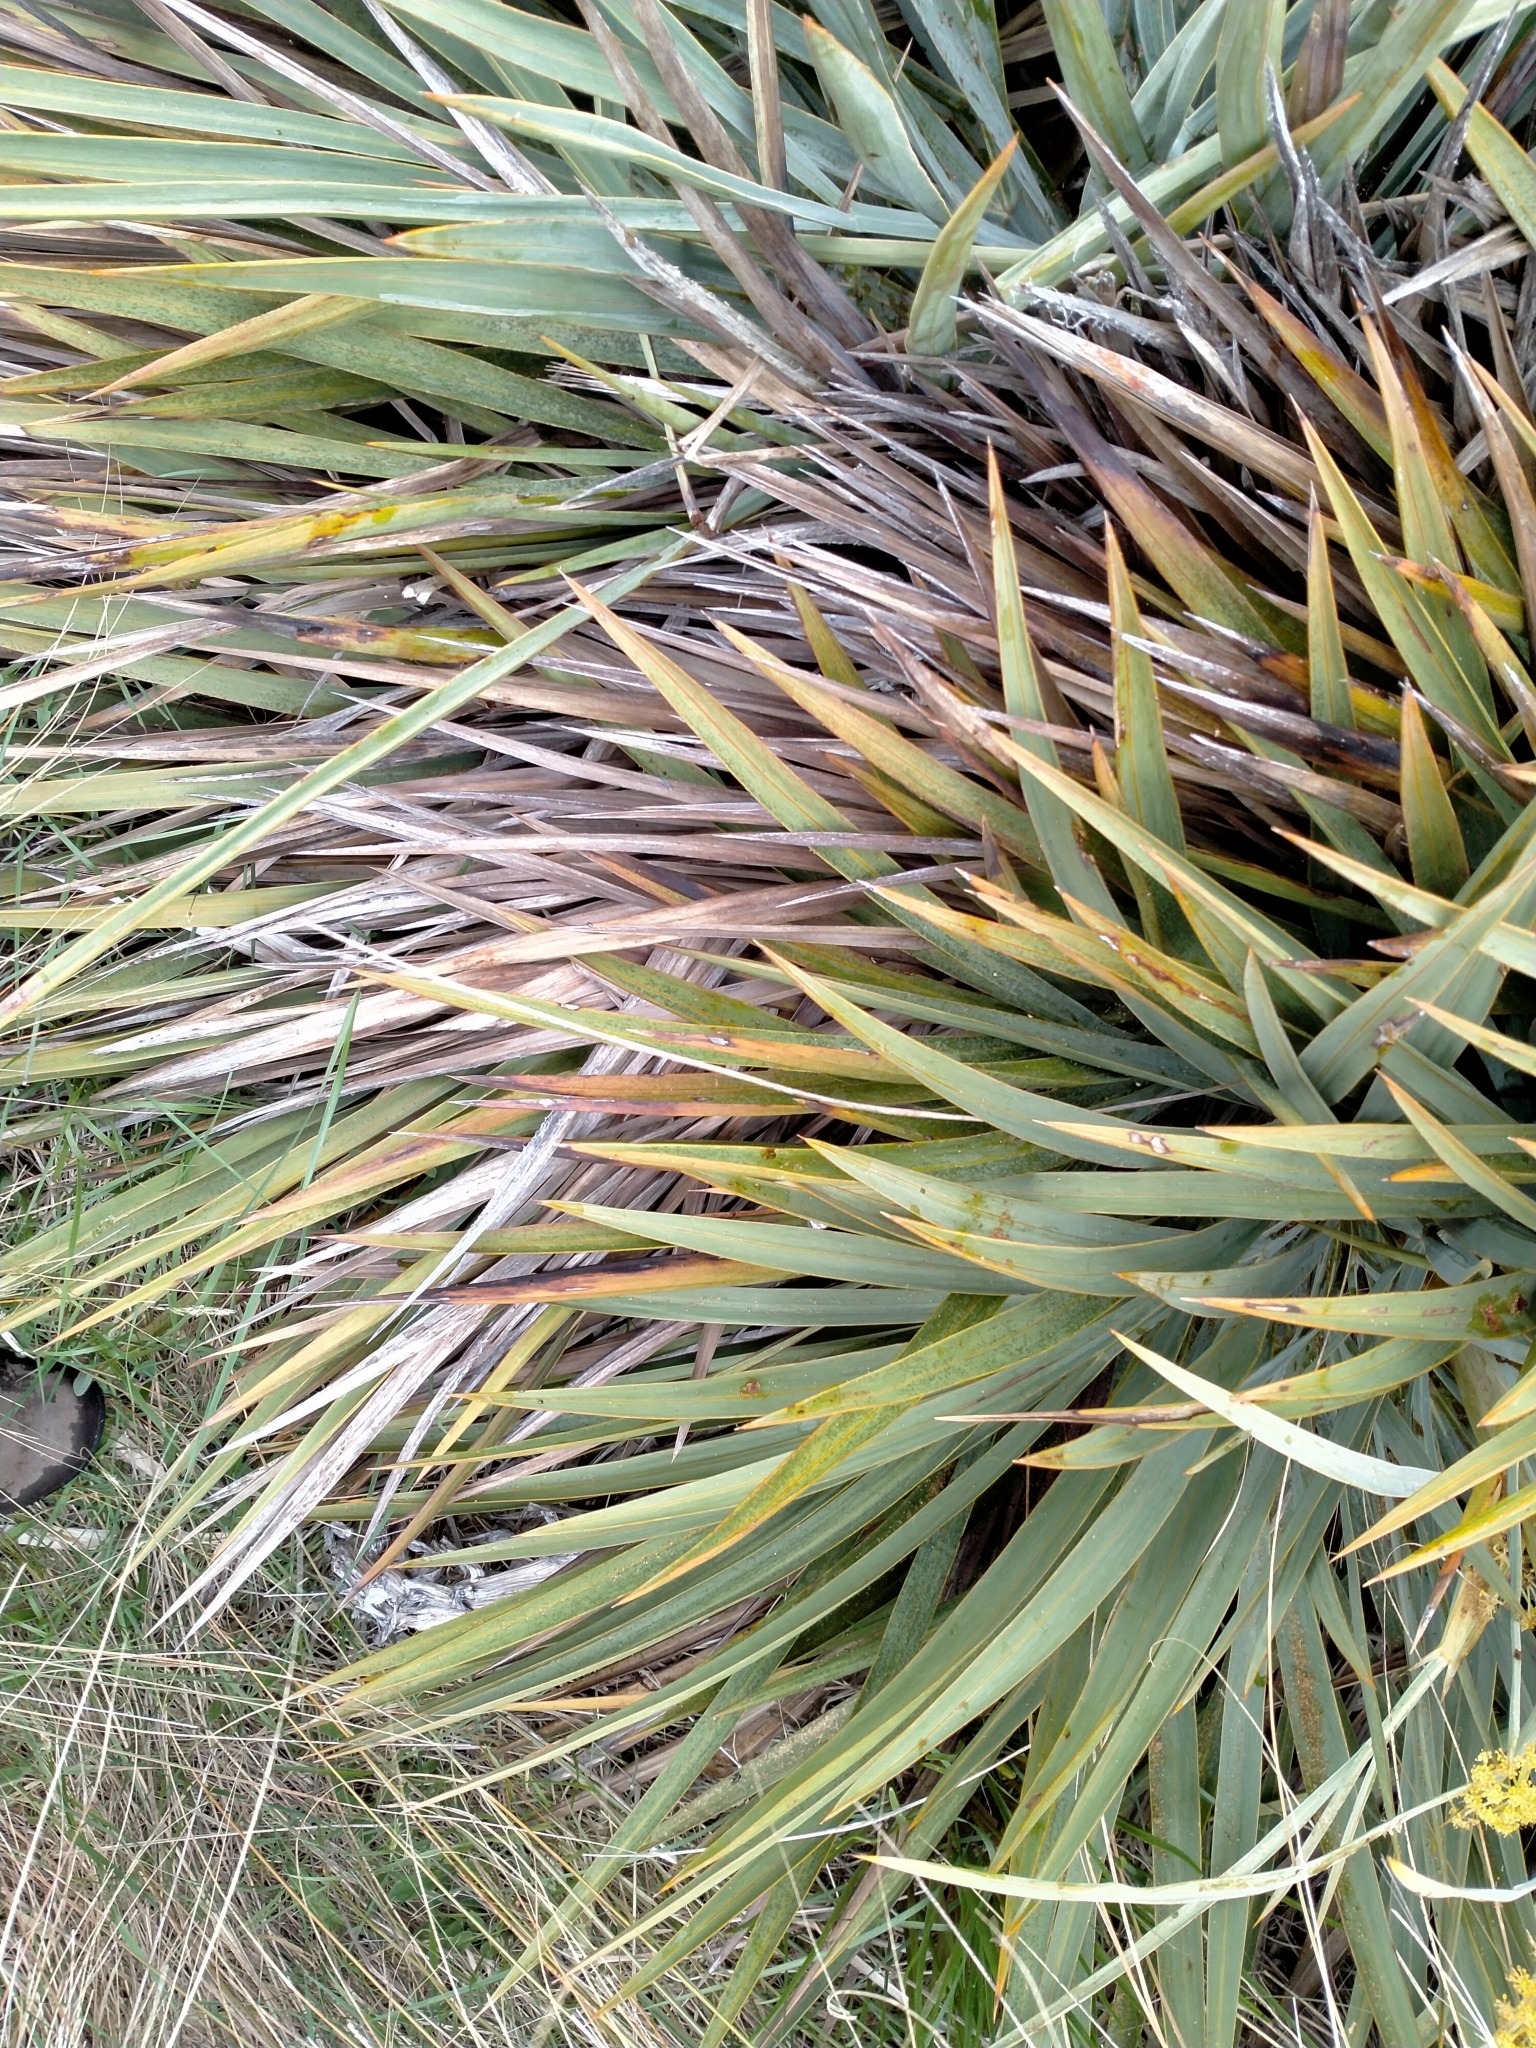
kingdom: Plantae
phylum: Tracheophyta
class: Magnoliopsida
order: Apiales
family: Apiaceae
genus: Aciphylla
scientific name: Aciphylla scott-thomsonii
